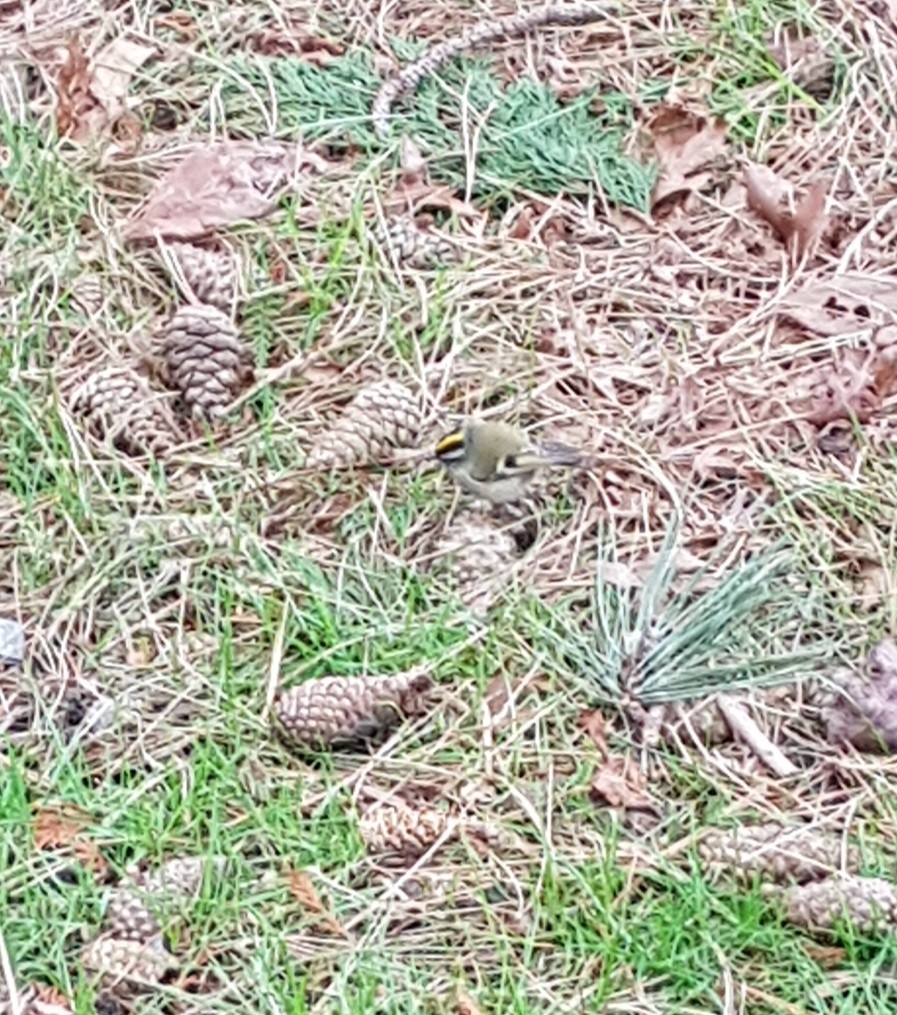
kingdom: Animalia
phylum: Chordata
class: Aves
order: Passeriformes
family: Regulidae
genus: Regulus
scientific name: Regulus satrapa
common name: Golden-crowned kinglet
